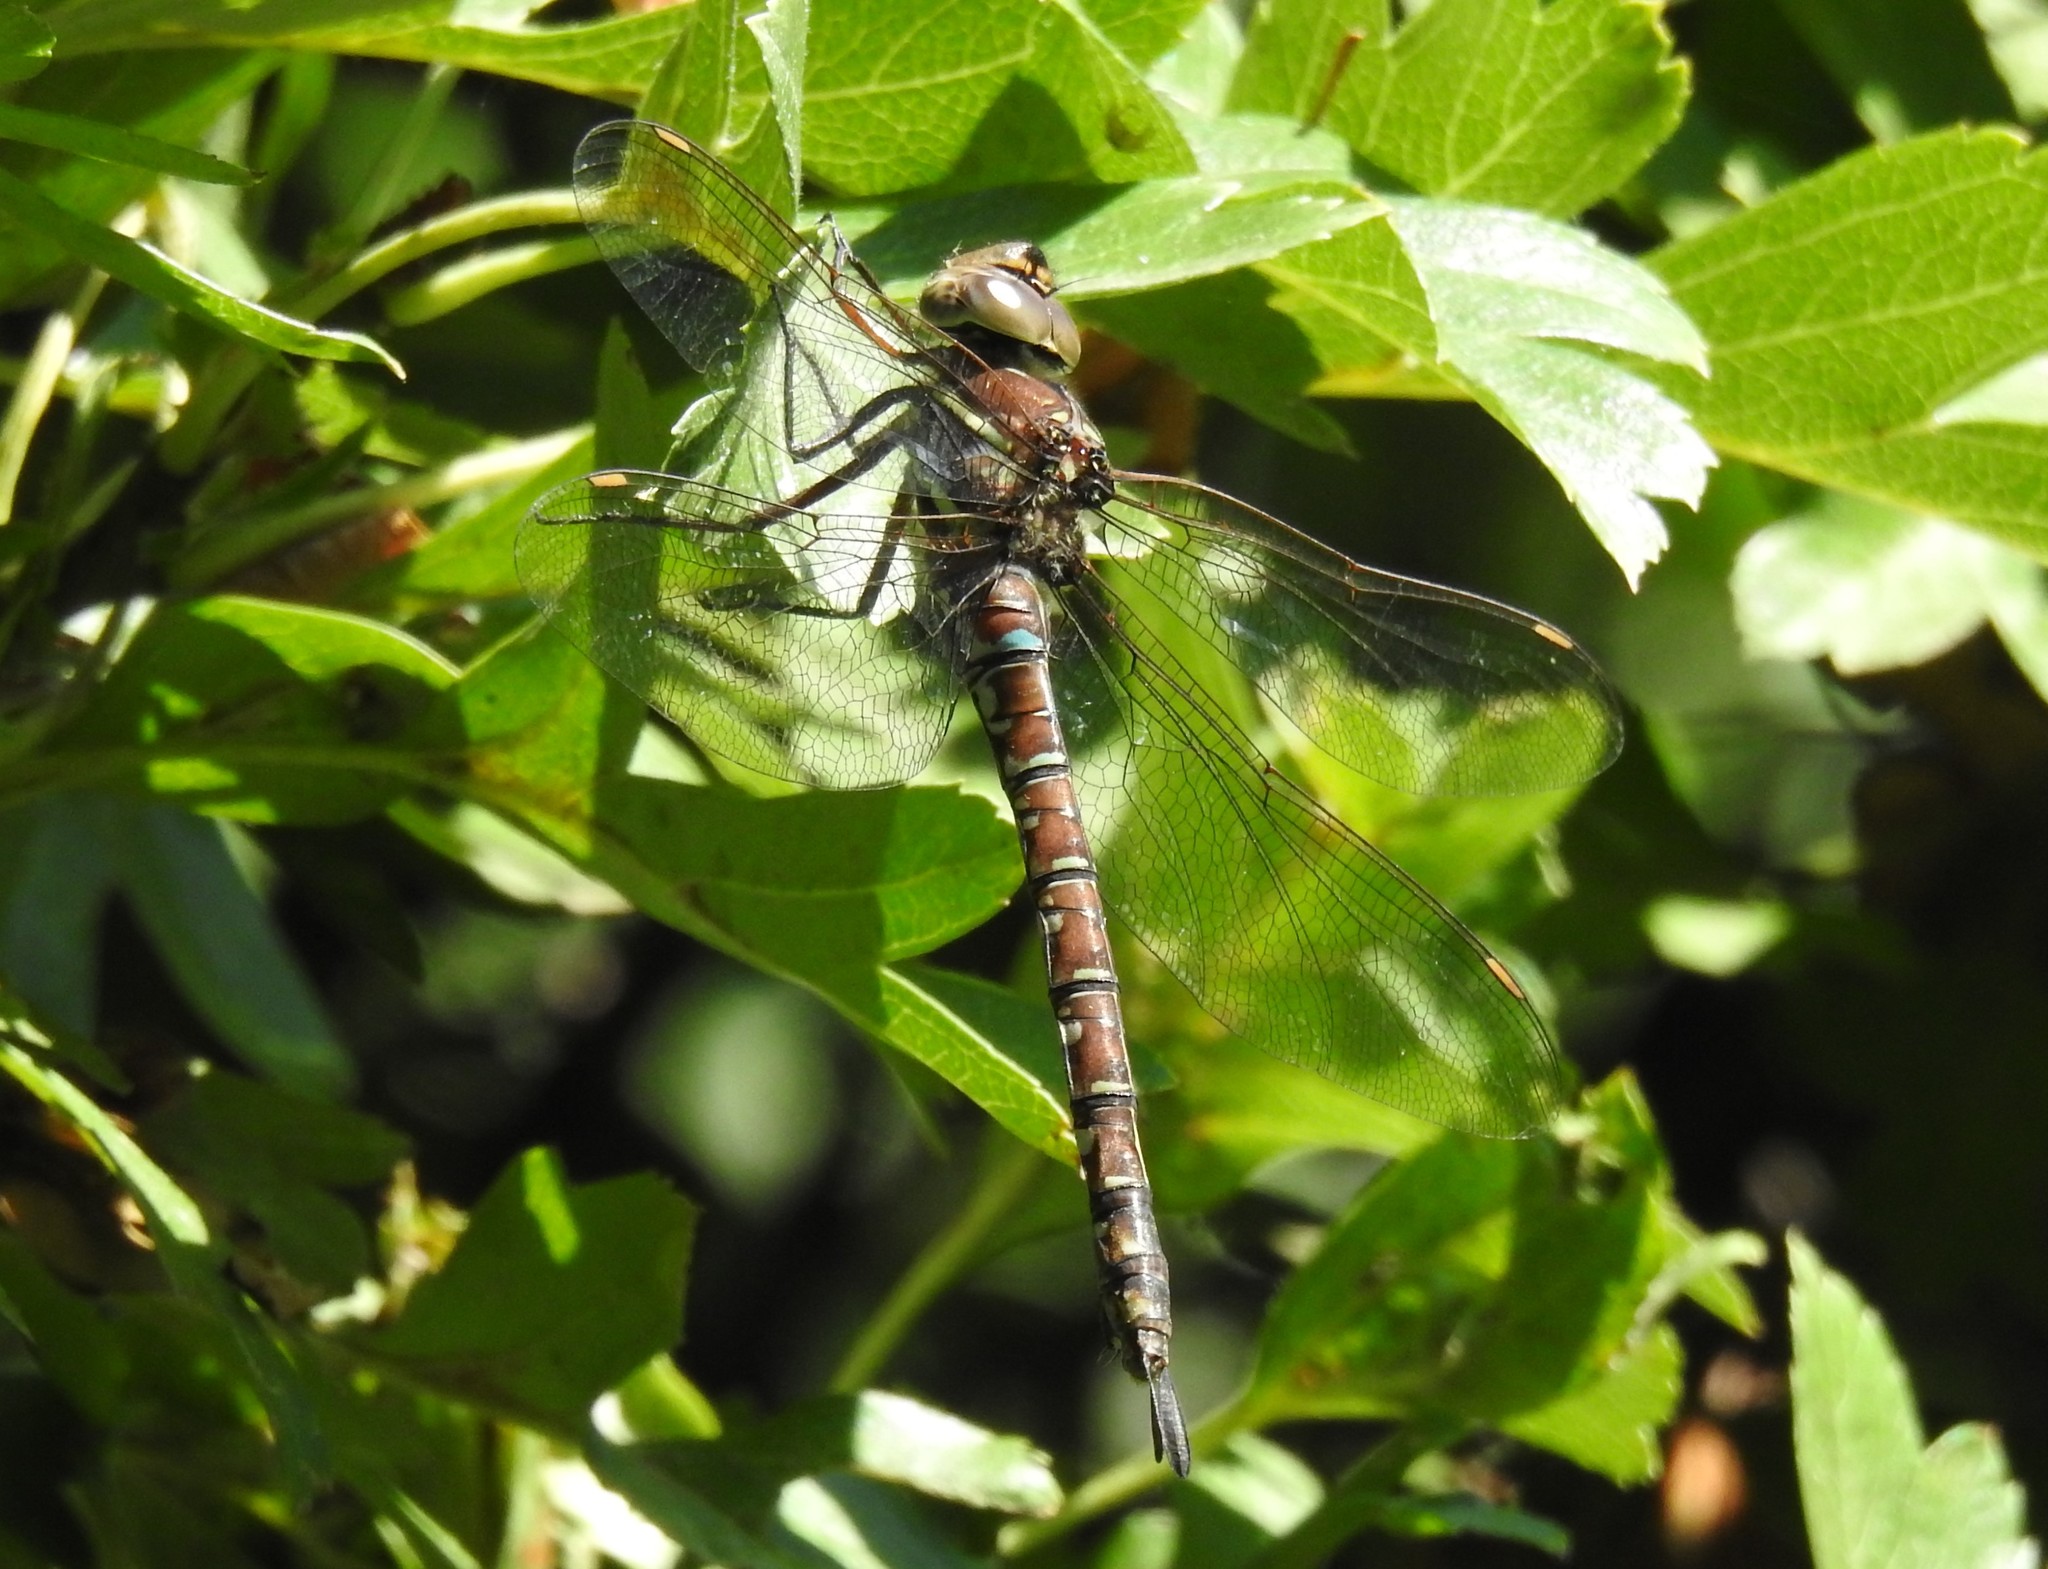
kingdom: Animalia
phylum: Arthropoda
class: Insecta
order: Odonata
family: Aeshnidae
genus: Aeshna
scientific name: Aeshna umbrosa
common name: Shadow darner
